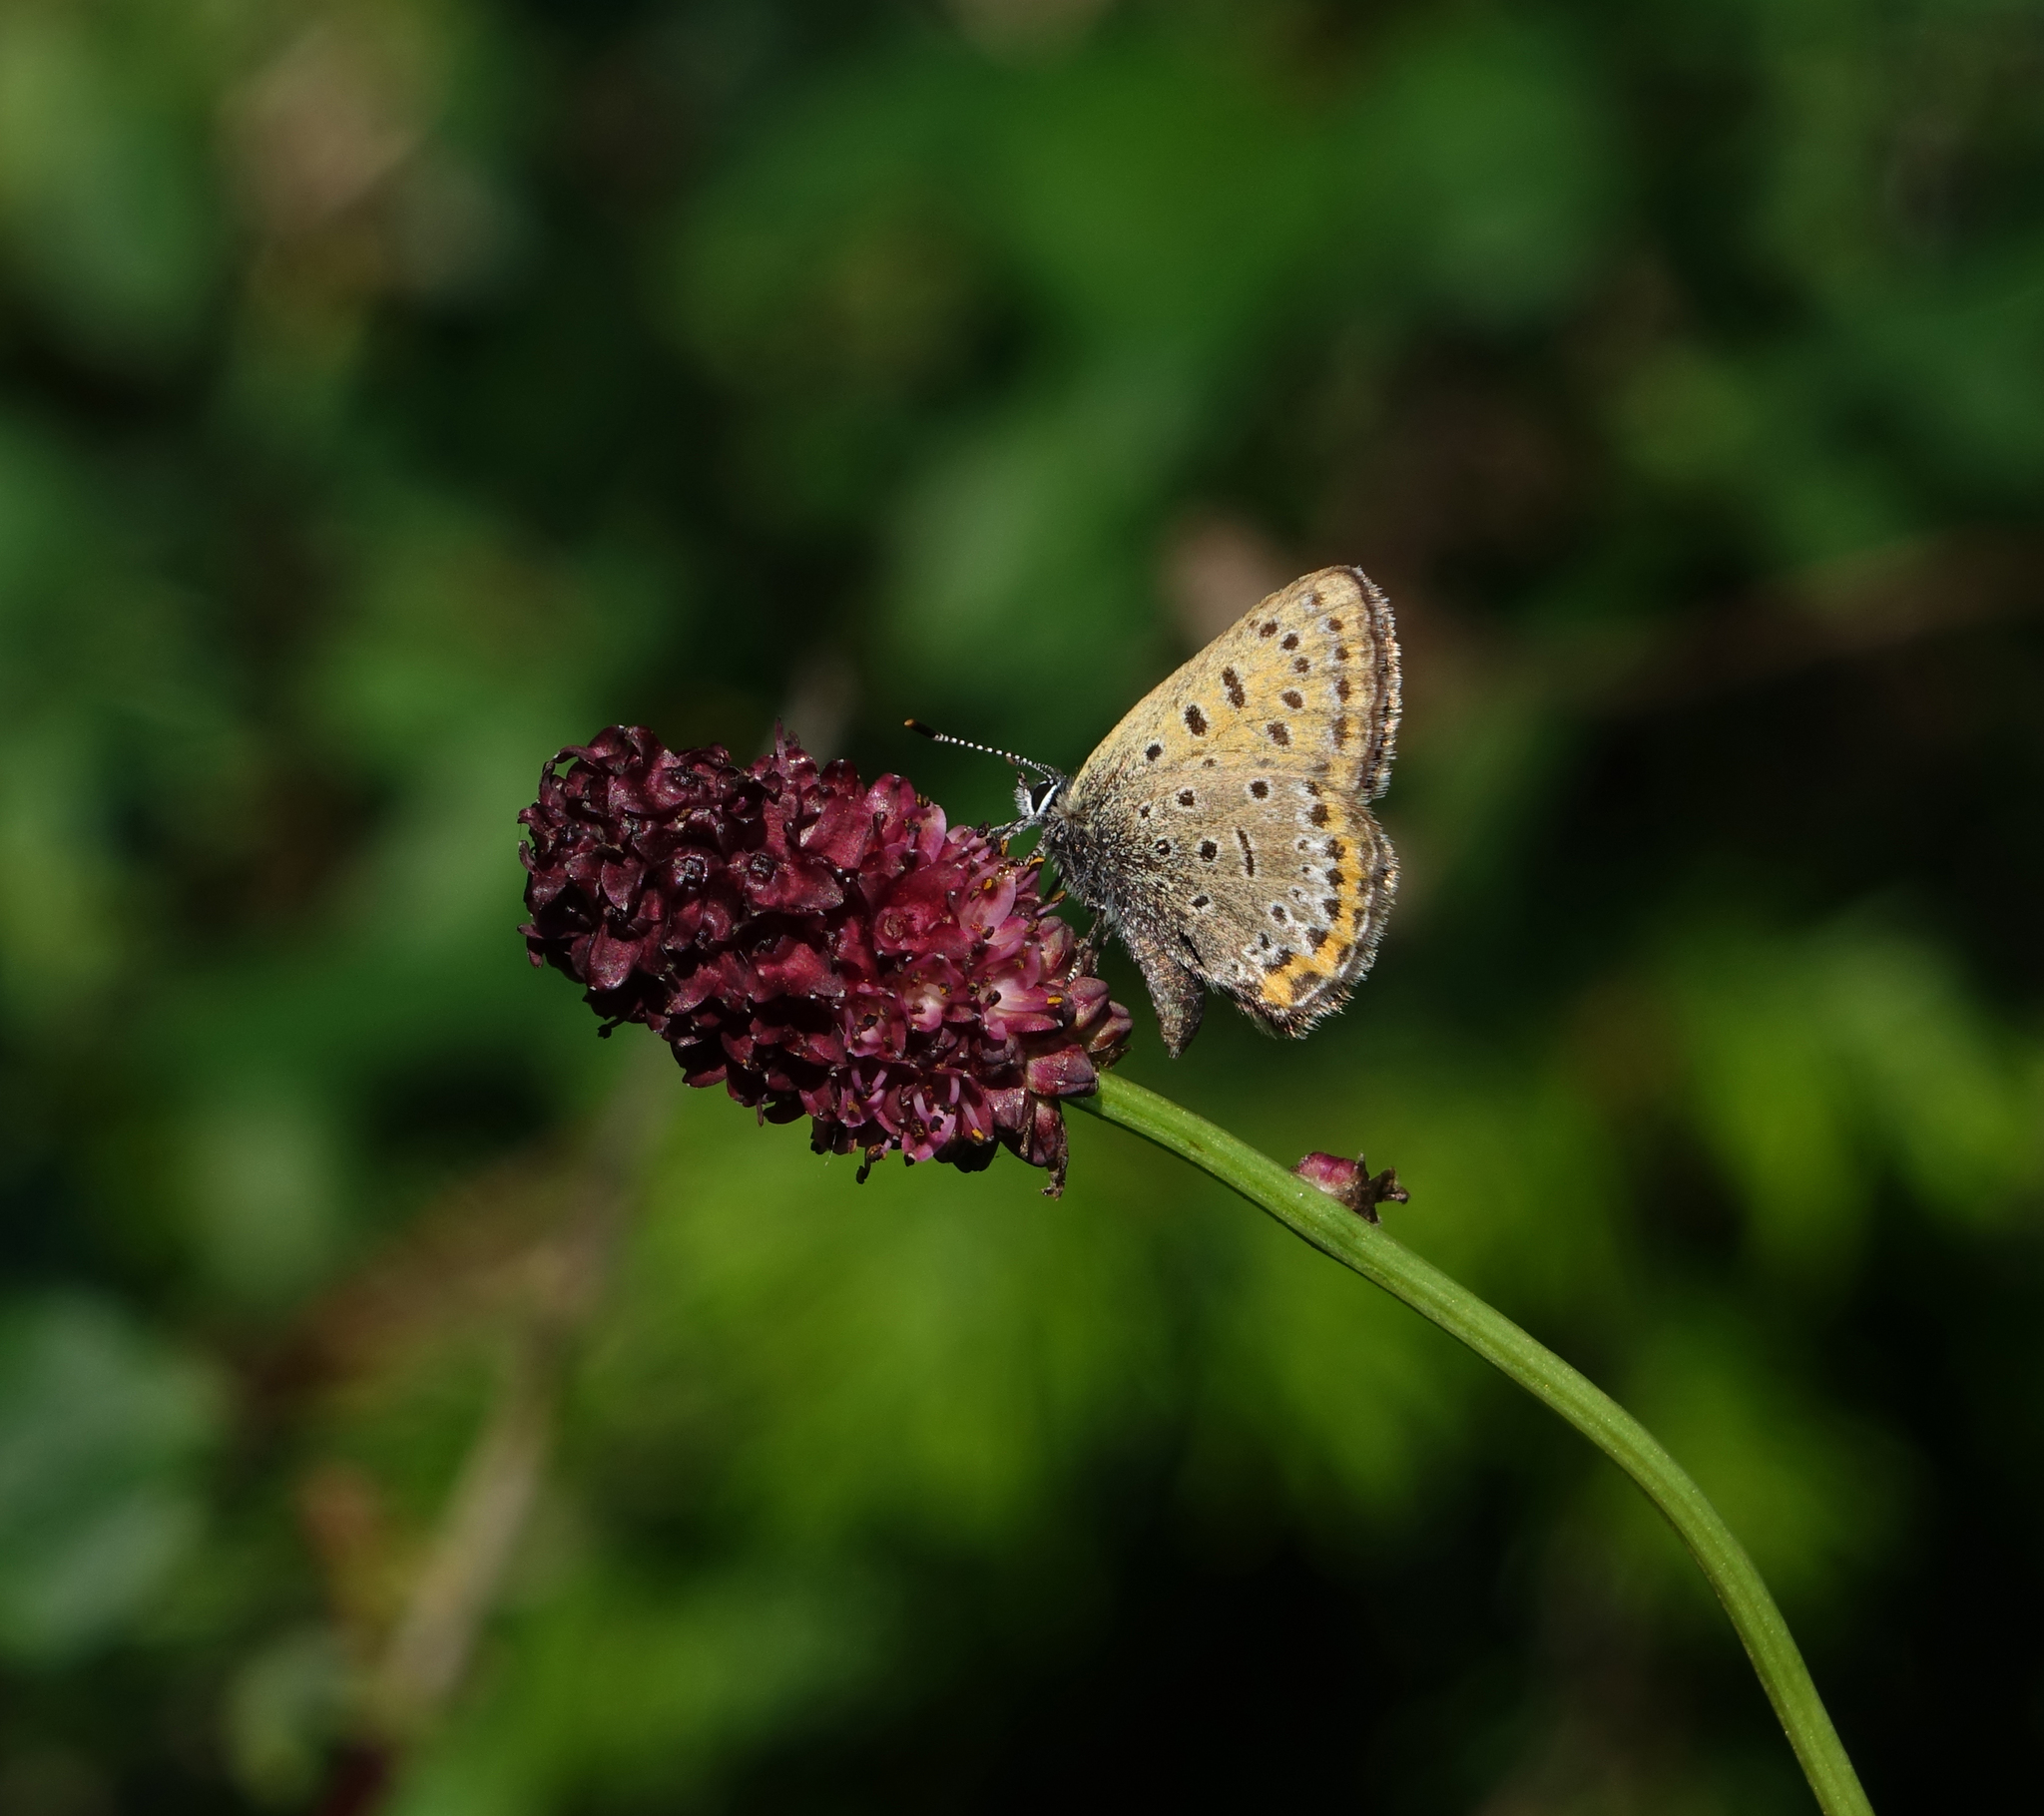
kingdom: Plantae
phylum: Tracheophyta
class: Magnoliopsida
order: Rosales
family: Rosaceae
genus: Sanguisorba
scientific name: Sanguisorba officinalis
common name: Great burnet
